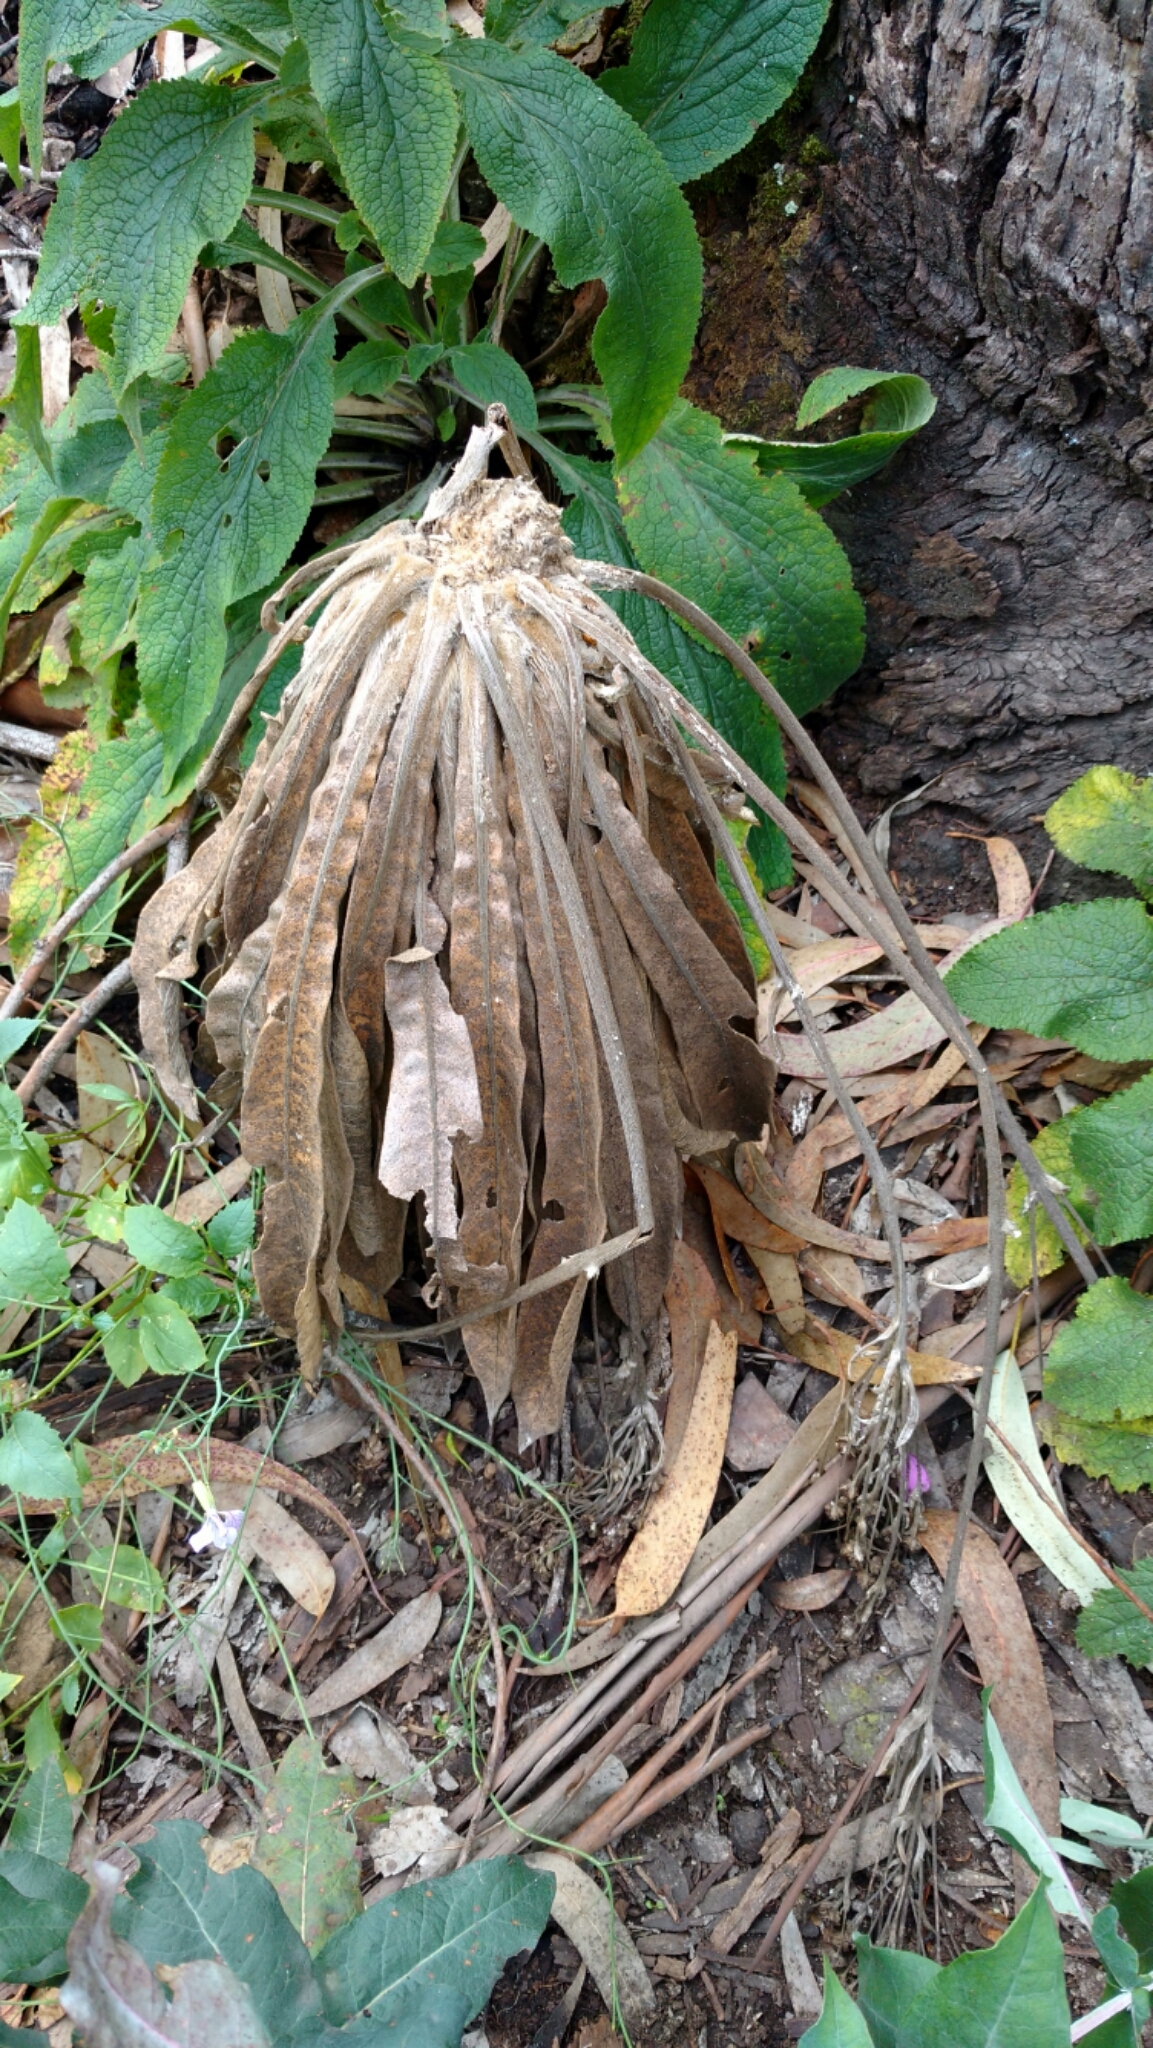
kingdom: Plantae
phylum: Tracheophyta
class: Magnoliopsida
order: Asterales
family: Asteraceae
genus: Espeletia
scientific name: Espeletia corymbosa
